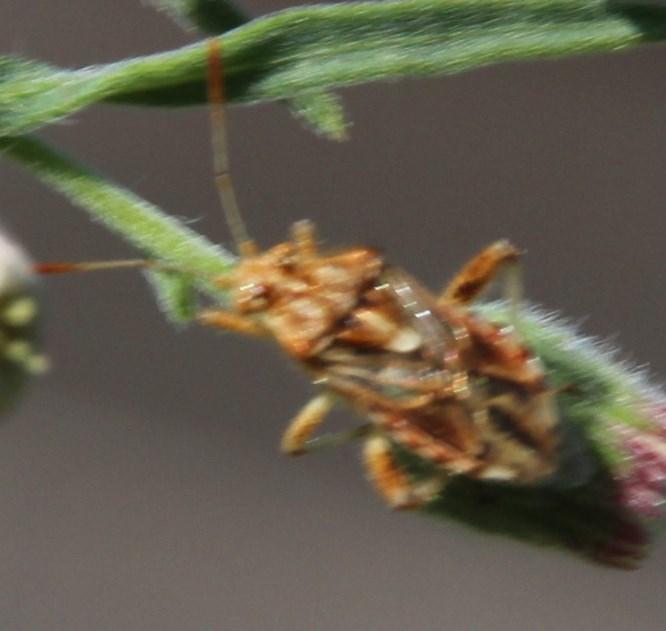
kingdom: Animalia
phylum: Arthropoda
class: Insecta
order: Hemiptera
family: Rhopalidae
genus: Stictopleurus
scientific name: Stictopleurus scutellaris
